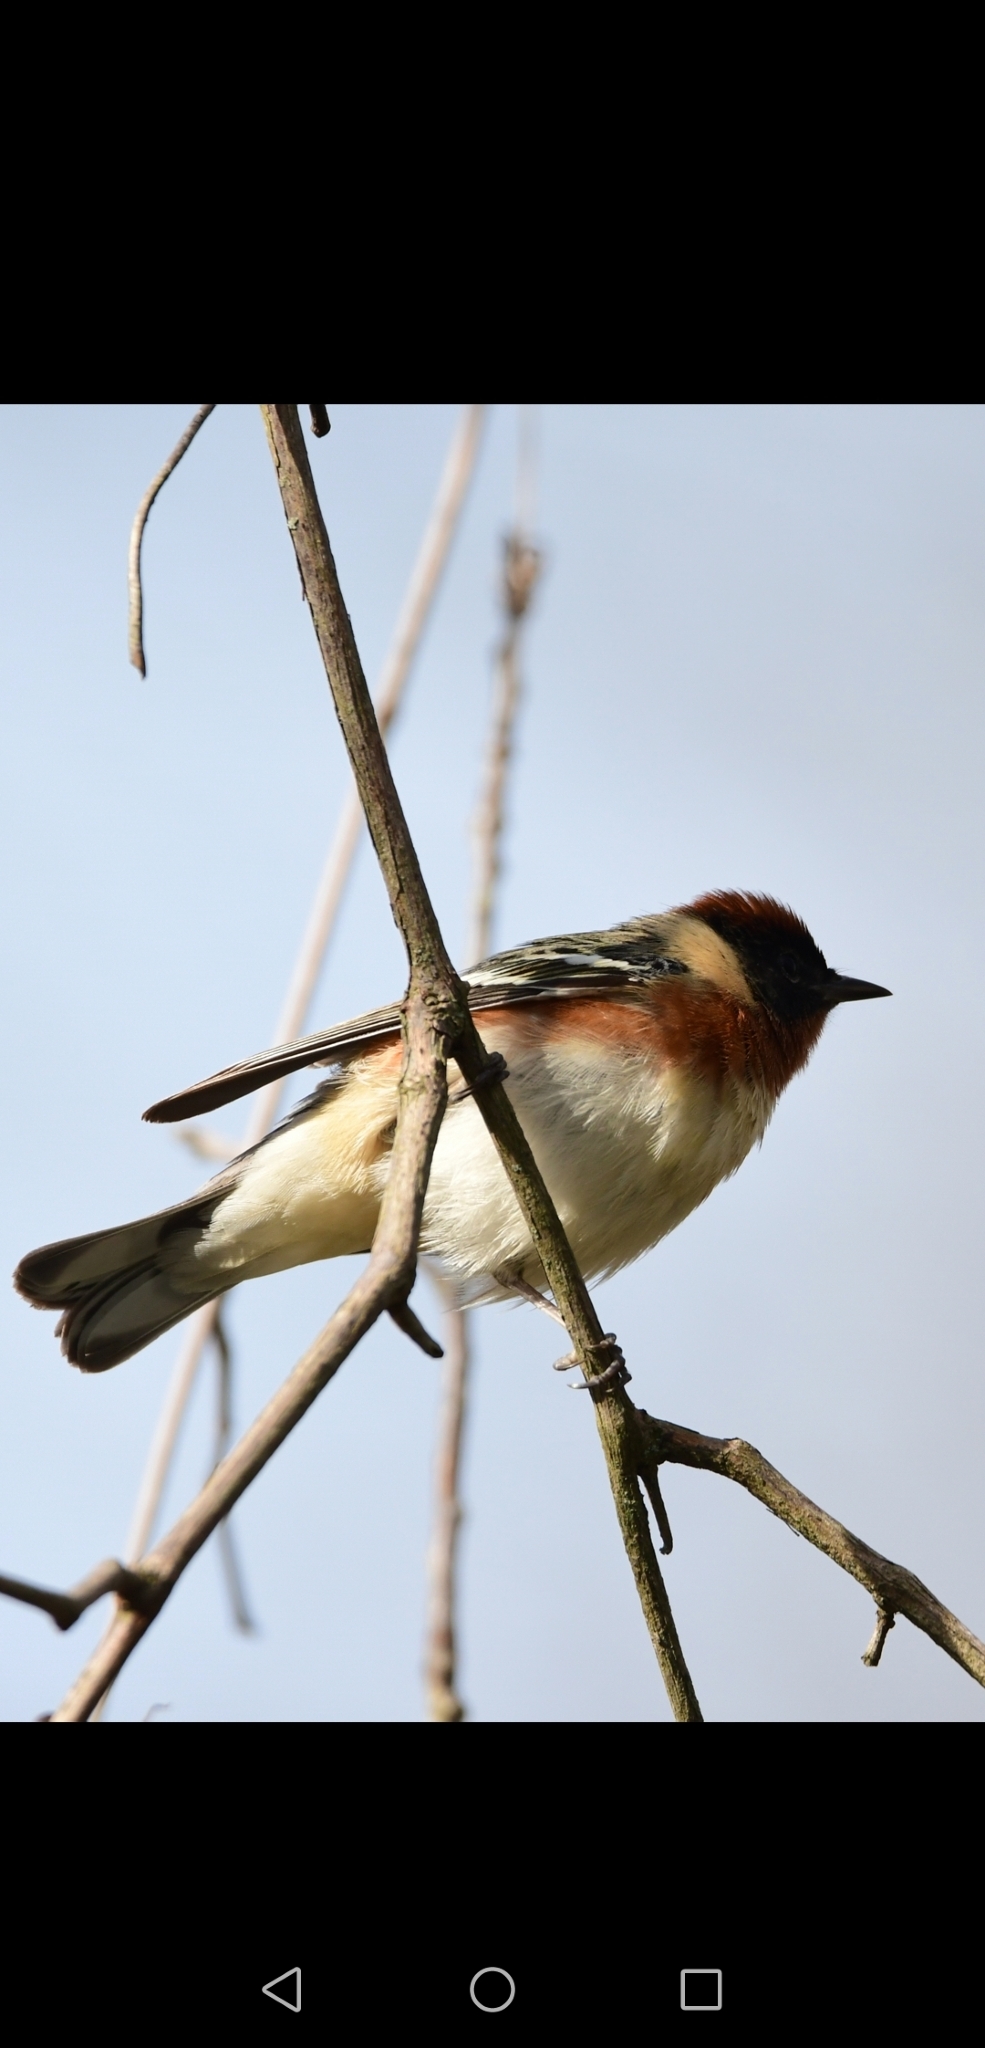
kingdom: Animalia
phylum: Chordata
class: Aves
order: Passeriformes
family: Parulidae
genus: Setophaga
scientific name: Setophaga castanea
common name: Bay-breasted warbler
